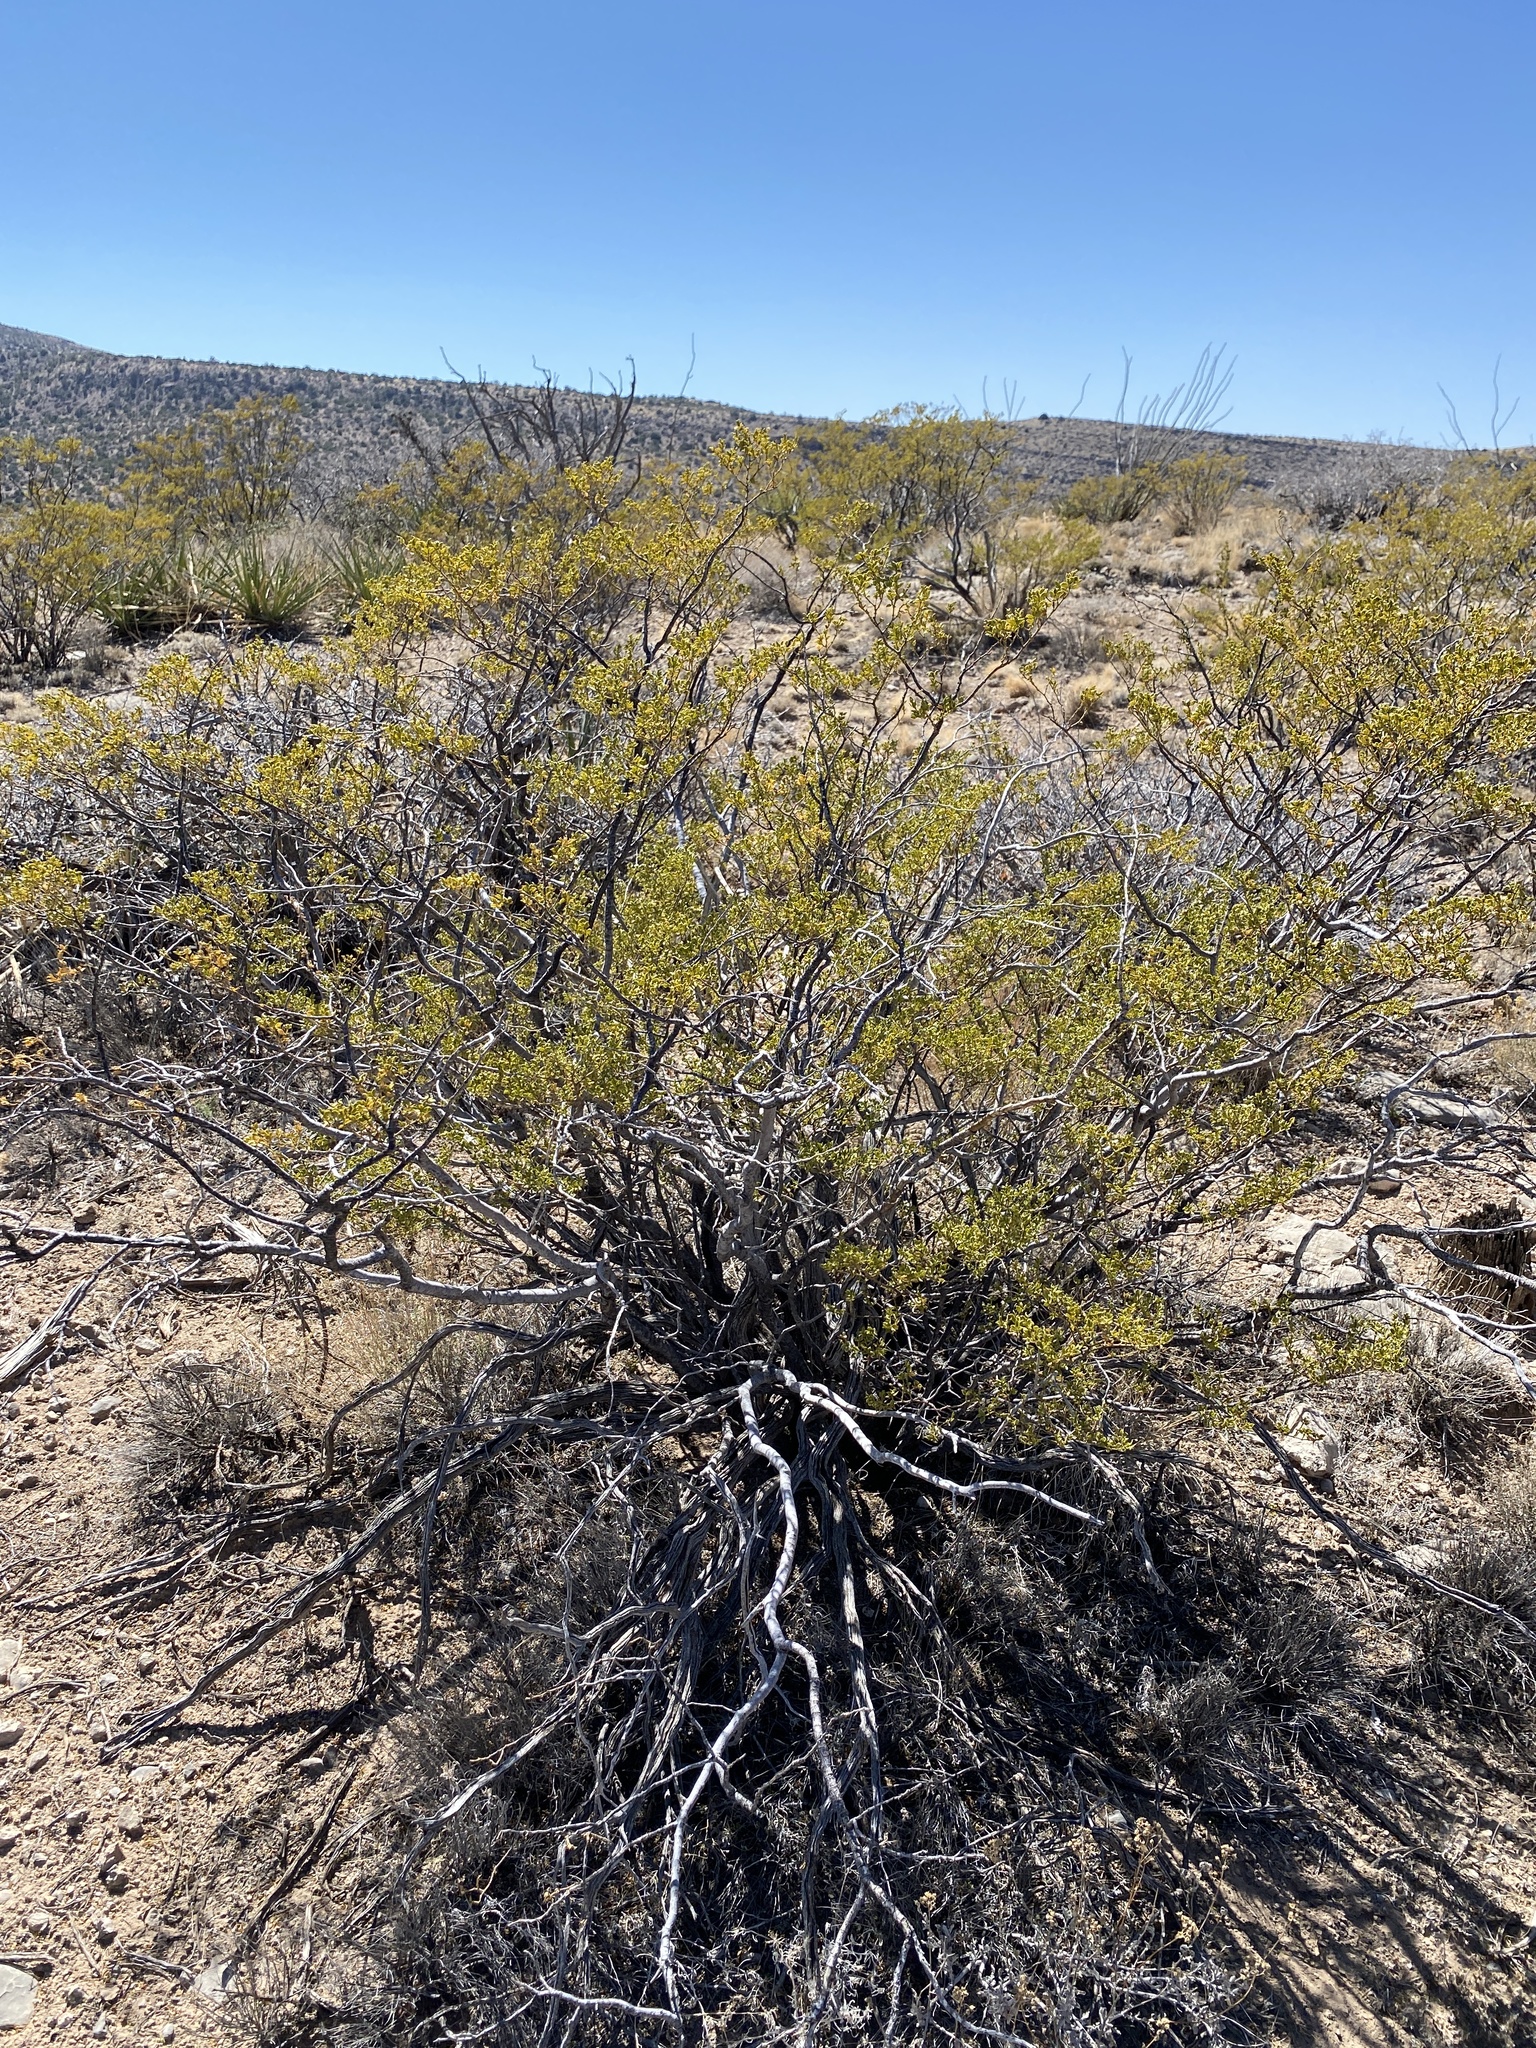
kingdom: Plantae
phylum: Tracheophyta
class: Magnoliopsida
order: Zygophyllales
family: Zygophyllaceae
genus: Larrea
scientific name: Larrea tridentata
